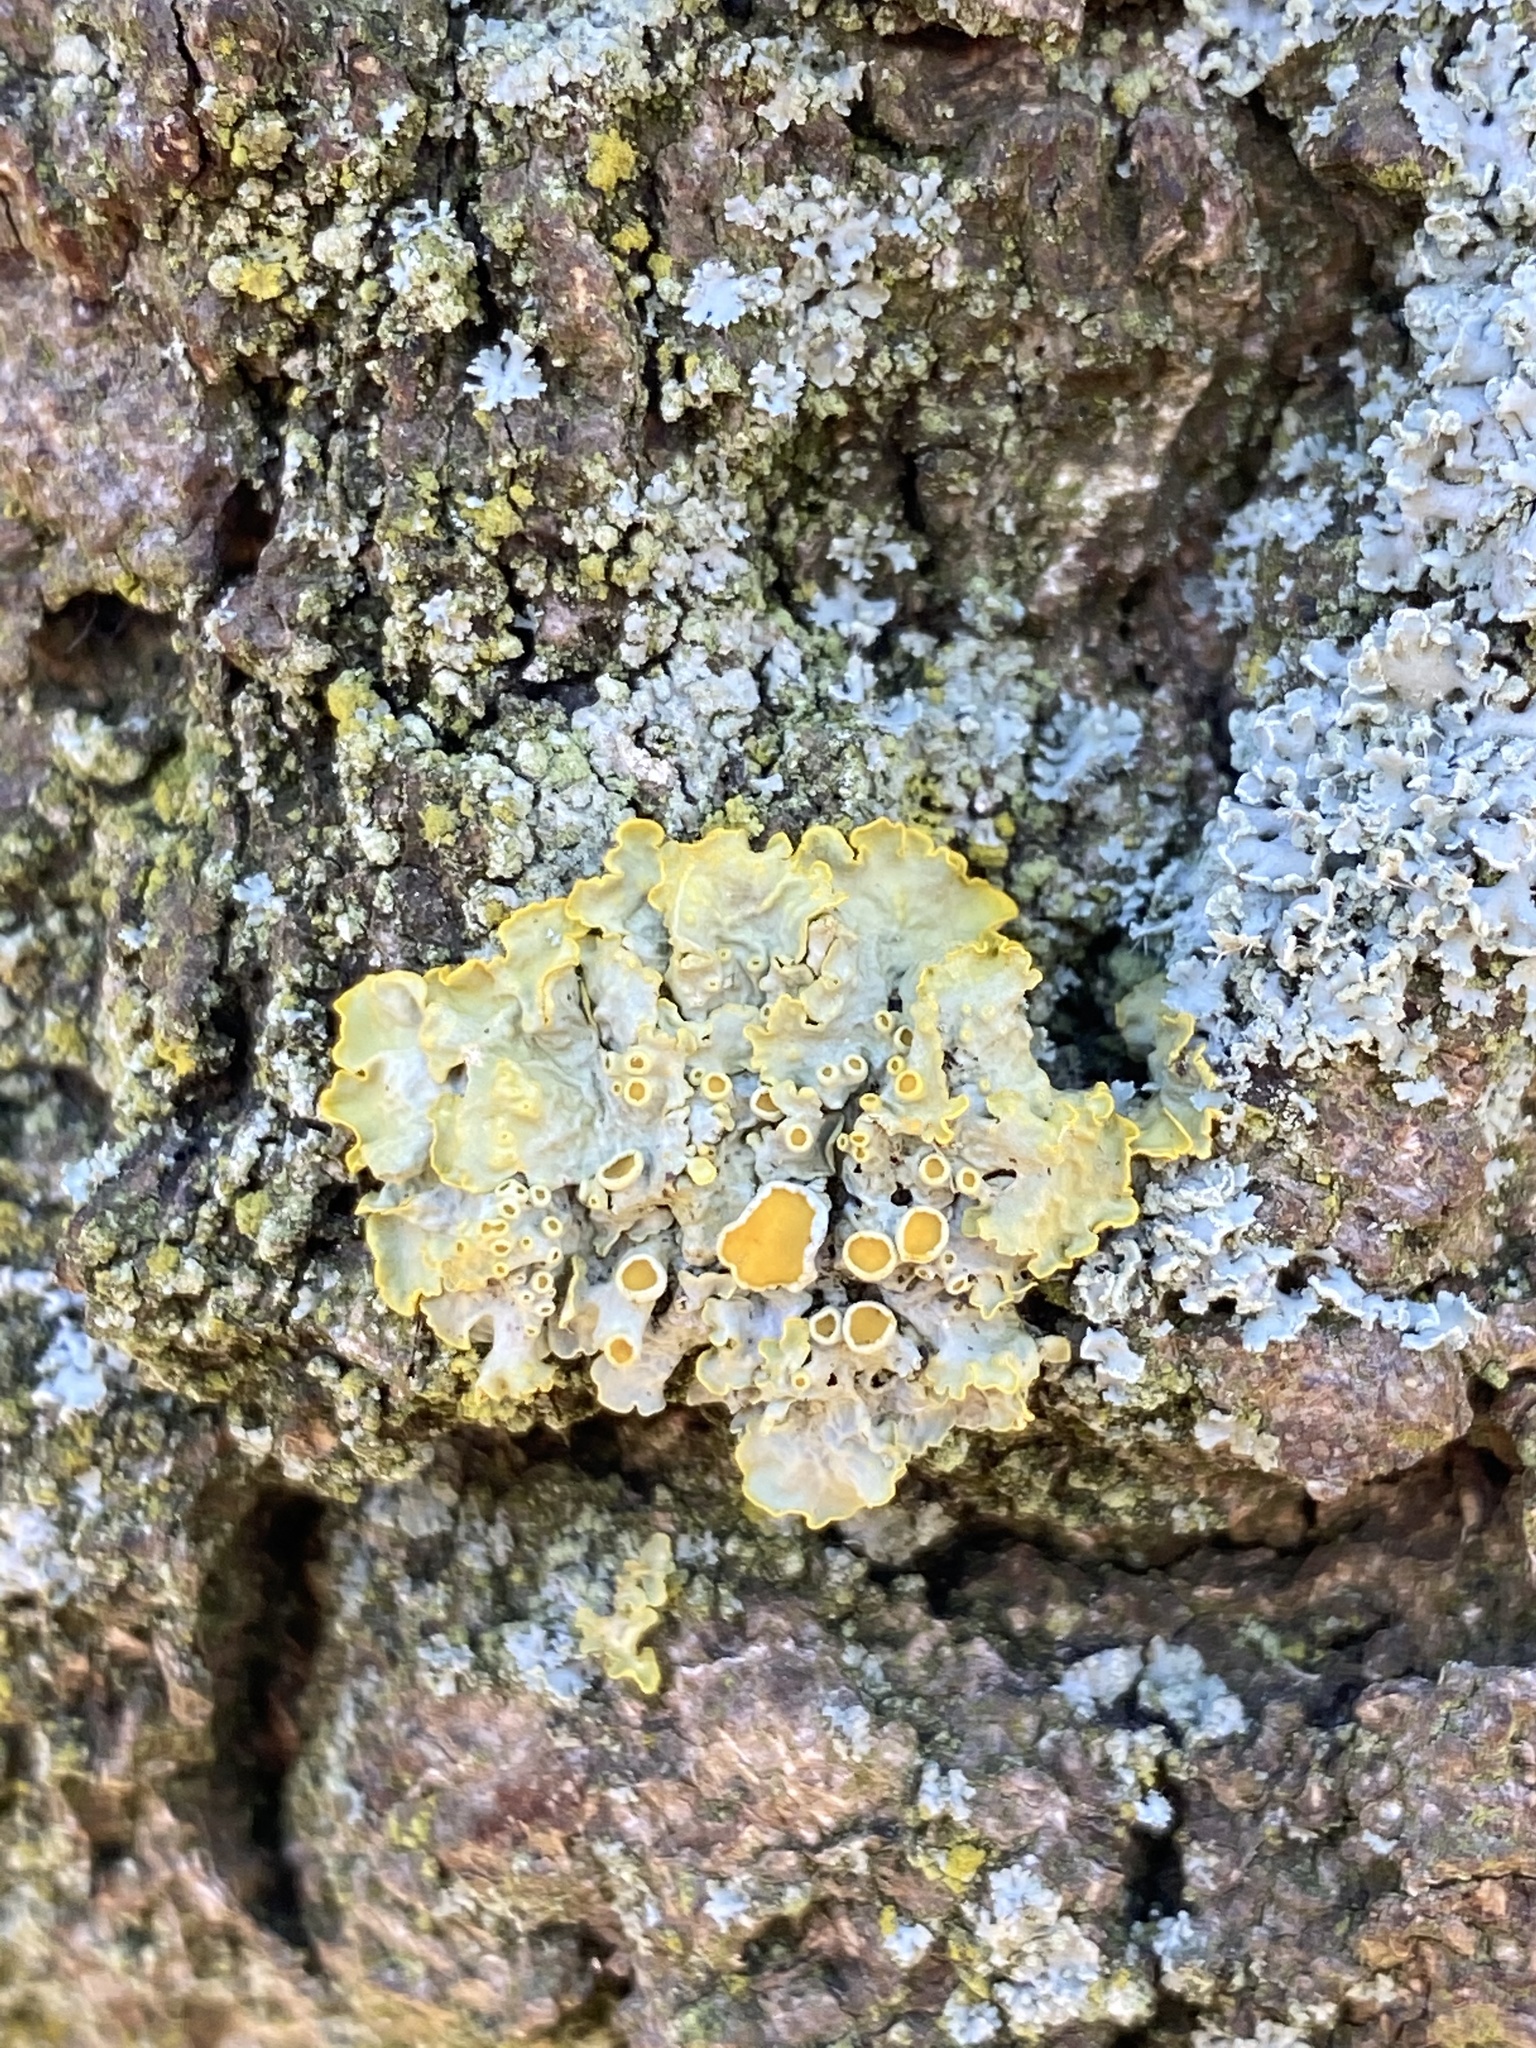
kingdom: Fungi
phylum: Ascomycota
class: Lecanoromycetes
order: Teloschistales
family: Teloschistaceae
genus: Xanthoria
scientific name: Xanthoria parietina
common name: Common orange lichen
